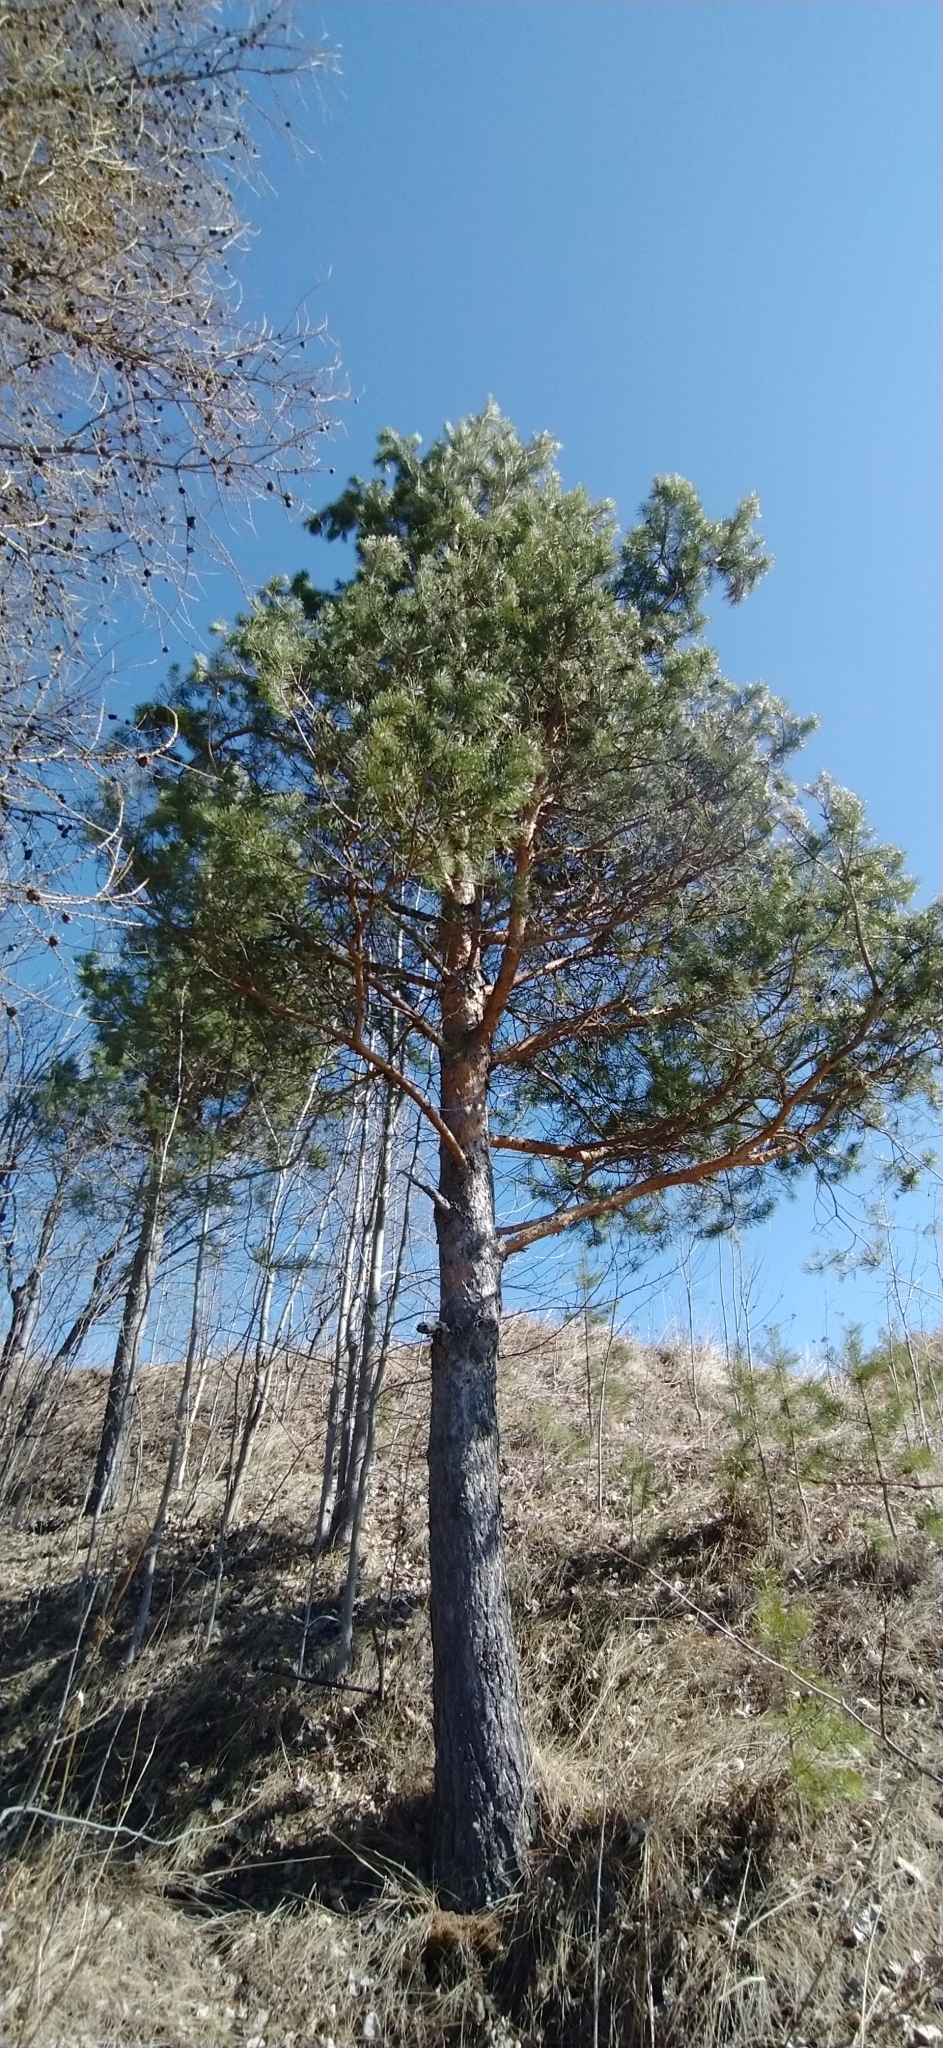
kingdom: Plantae
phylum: Tracheophyta
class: Pinopsida
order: Pinales
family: Pinaceae
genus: Pinus
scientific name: Pinus sylvestris
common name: Scots pine
